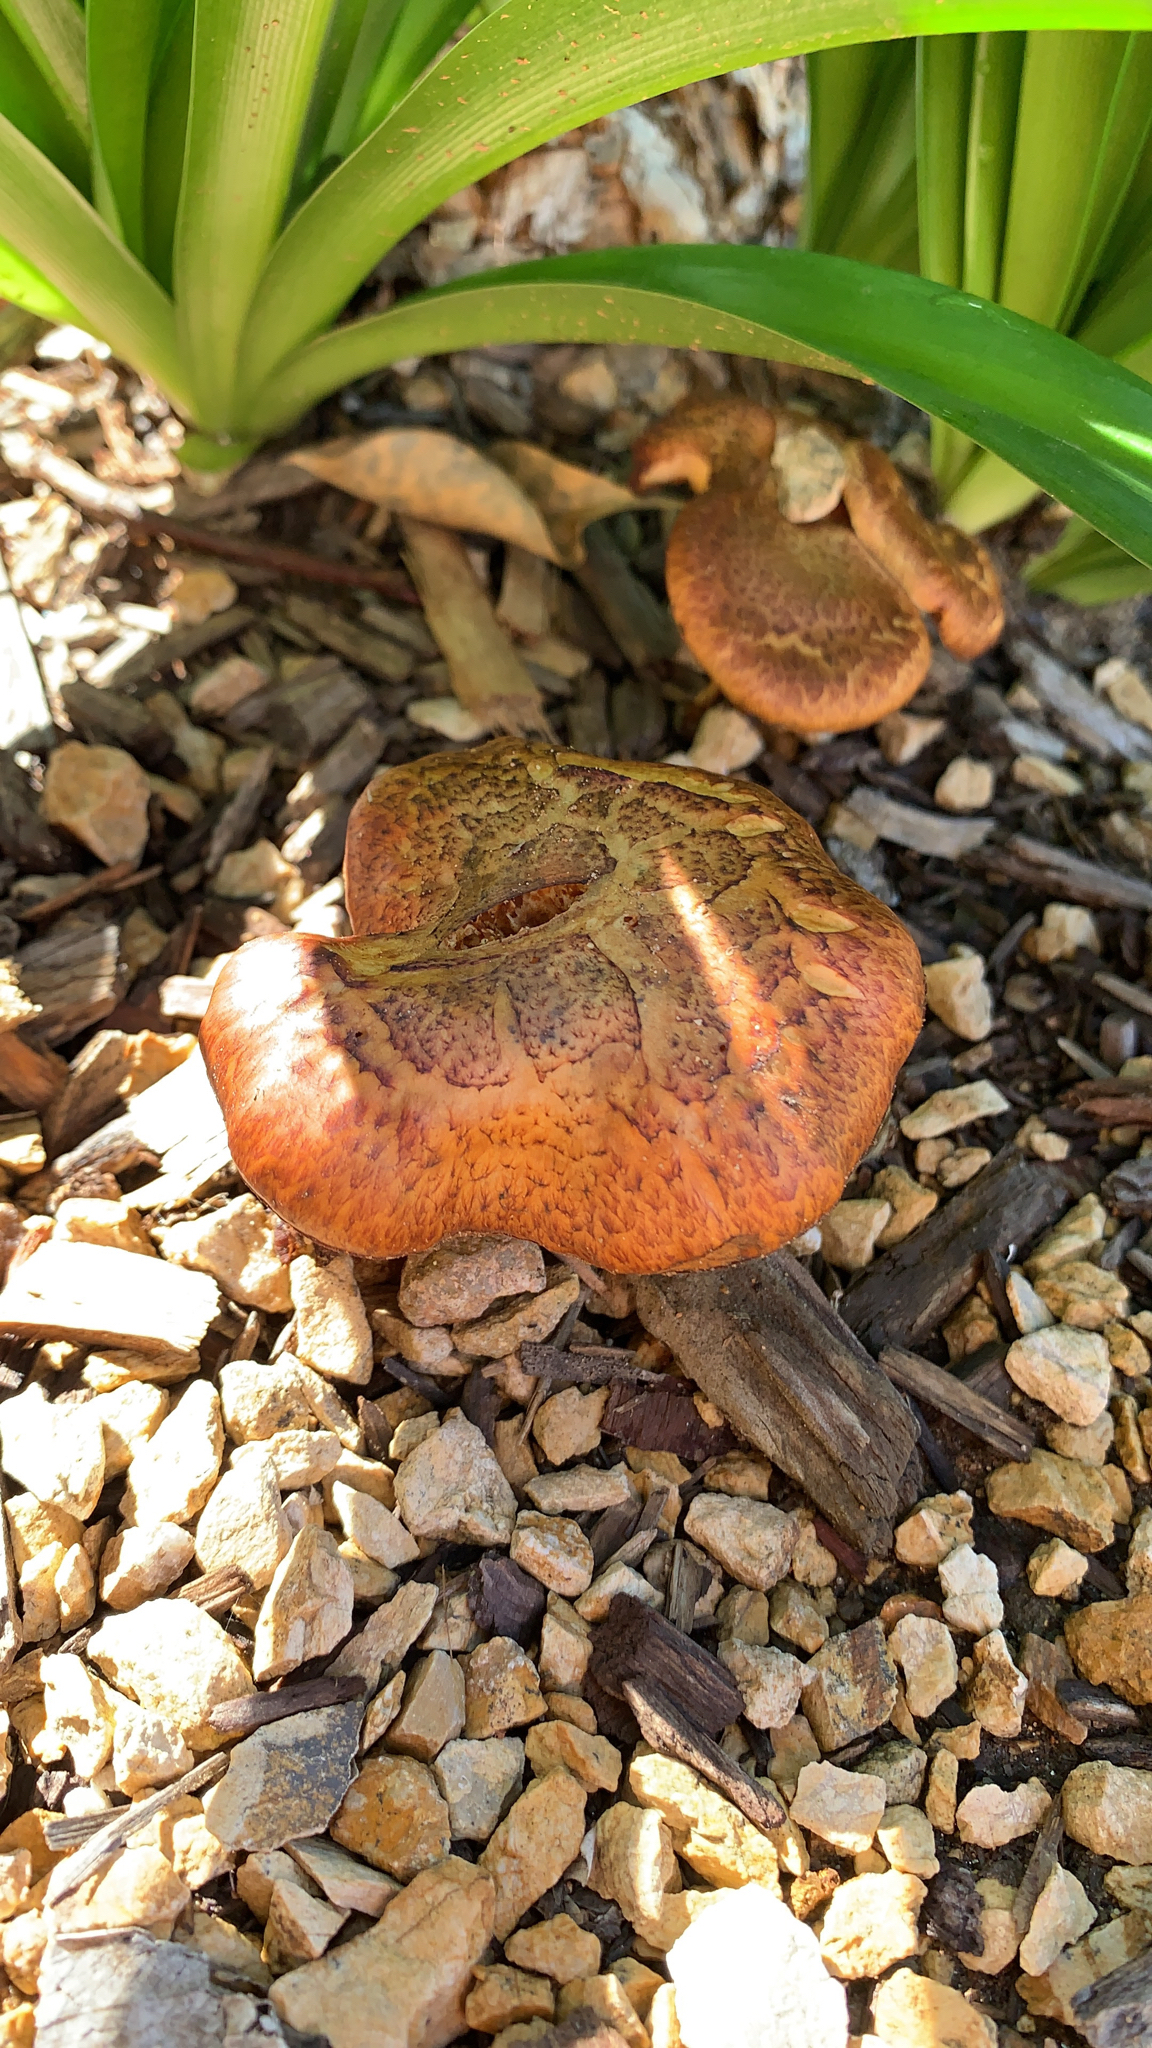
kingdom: Fungi
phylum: Basidiomycota
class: Agaricomycetes
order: Agaricales
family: Hymenogastraceae
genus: Gymnopilus
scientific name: Gymnopilus luteofolius
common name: Yellow-gilled gymnopilus
